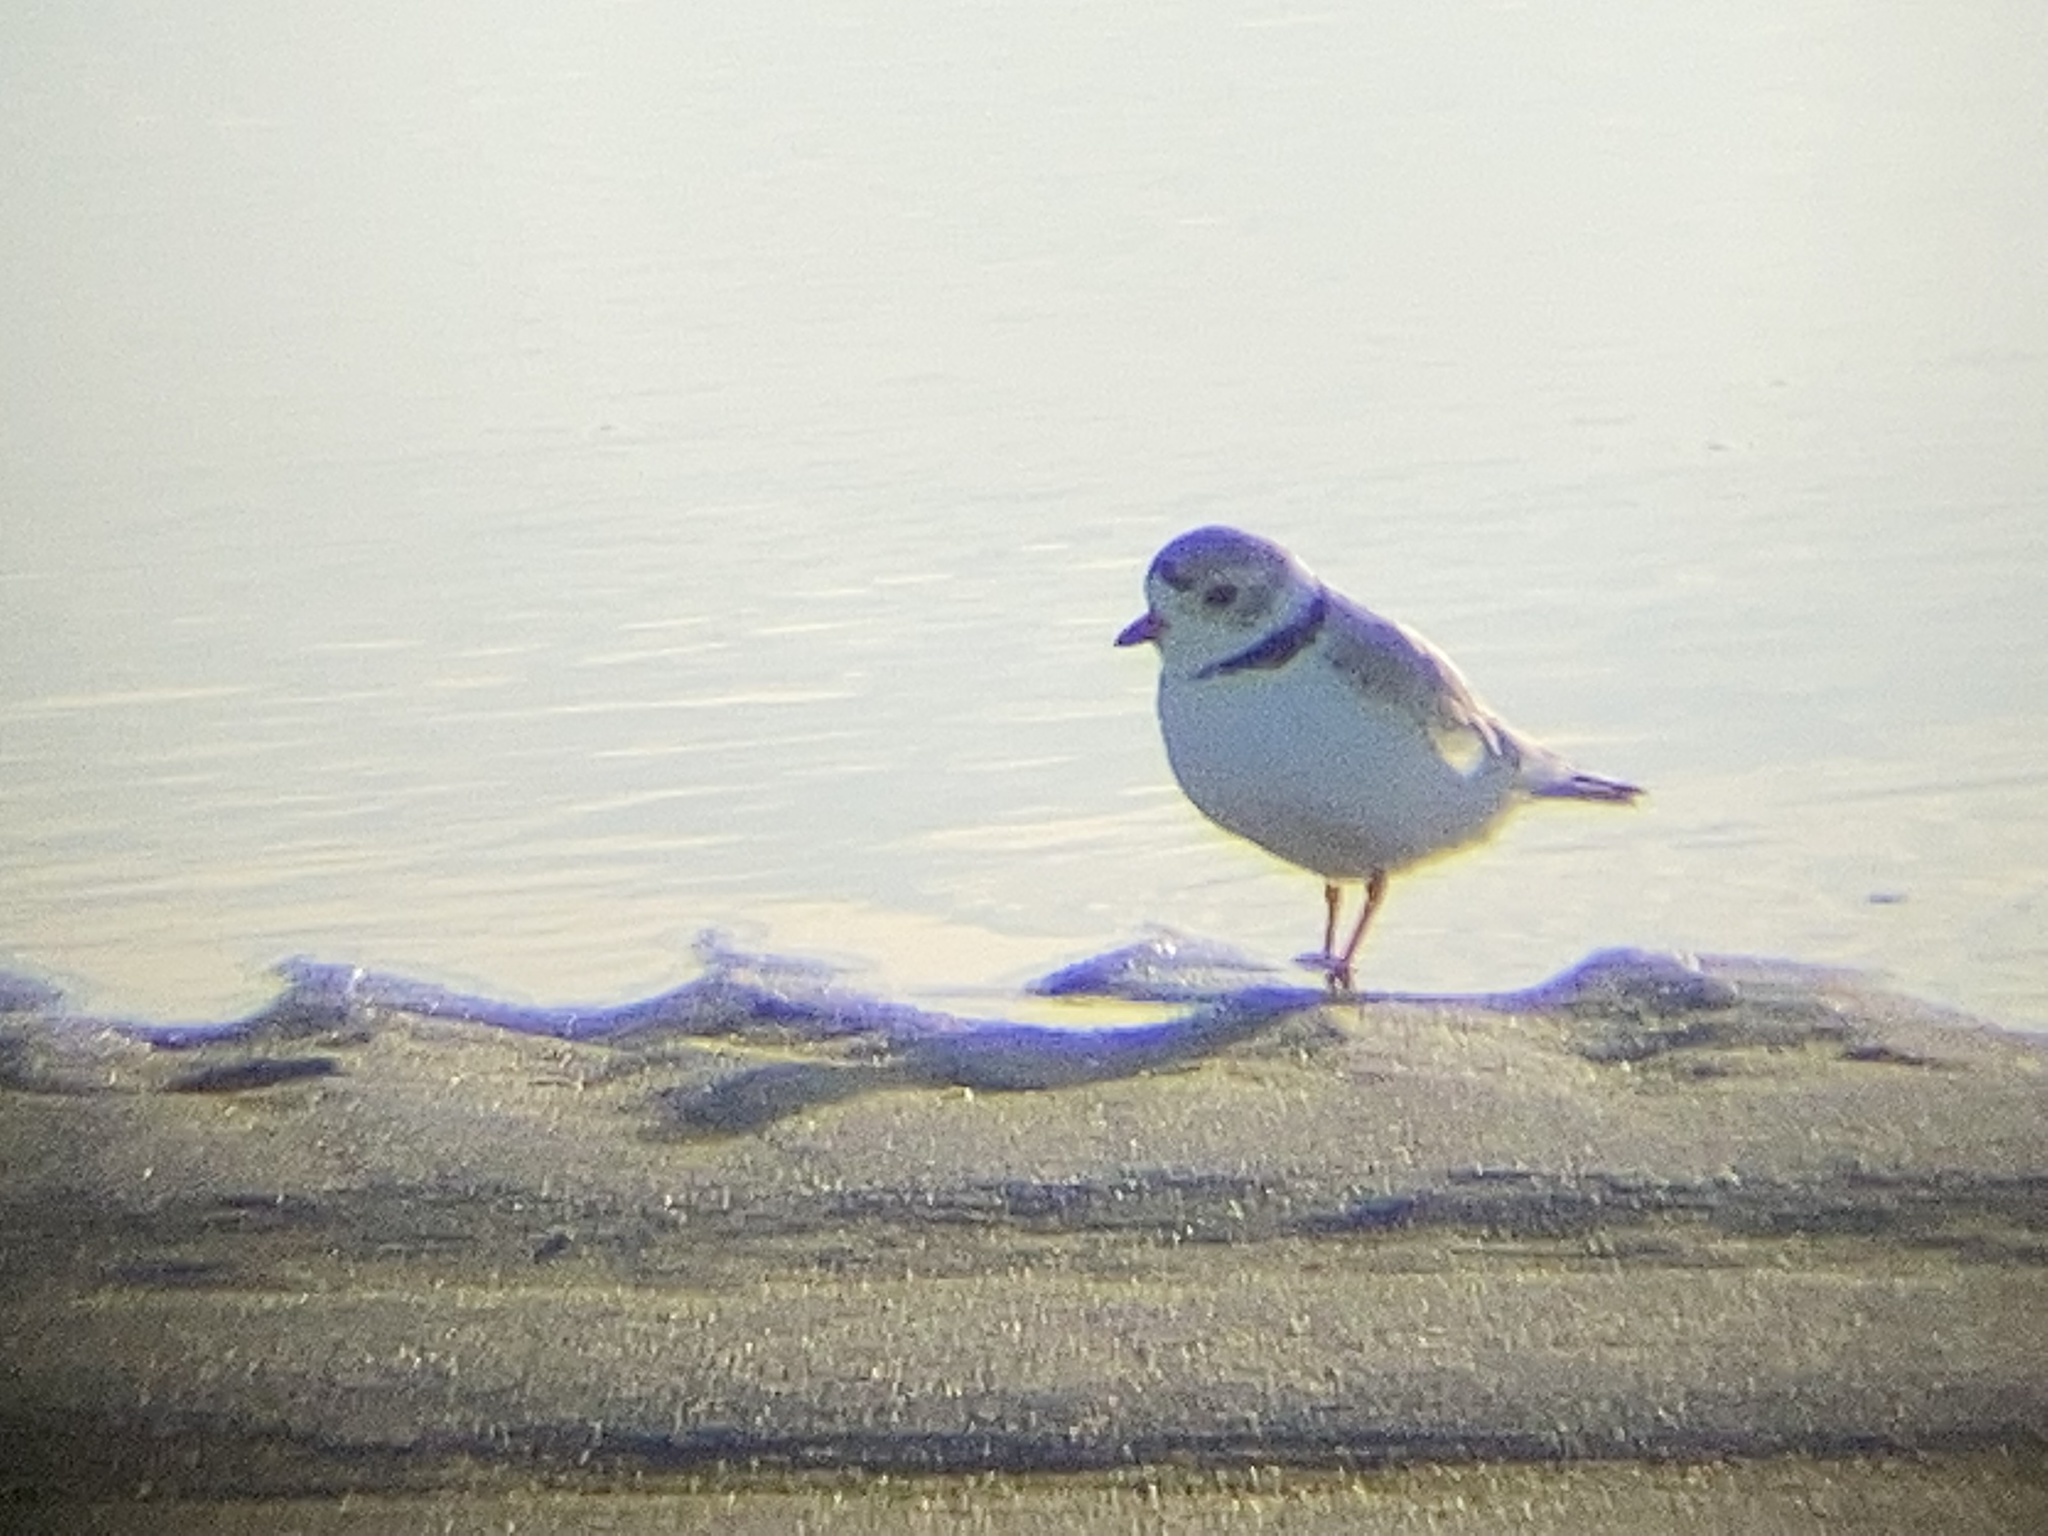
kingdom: Animalia
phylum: Chordata
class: Aves
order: Charadriiformes
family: Charadriidae
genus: Charadrius
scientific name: Charadrius melodus
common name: Piping plover
